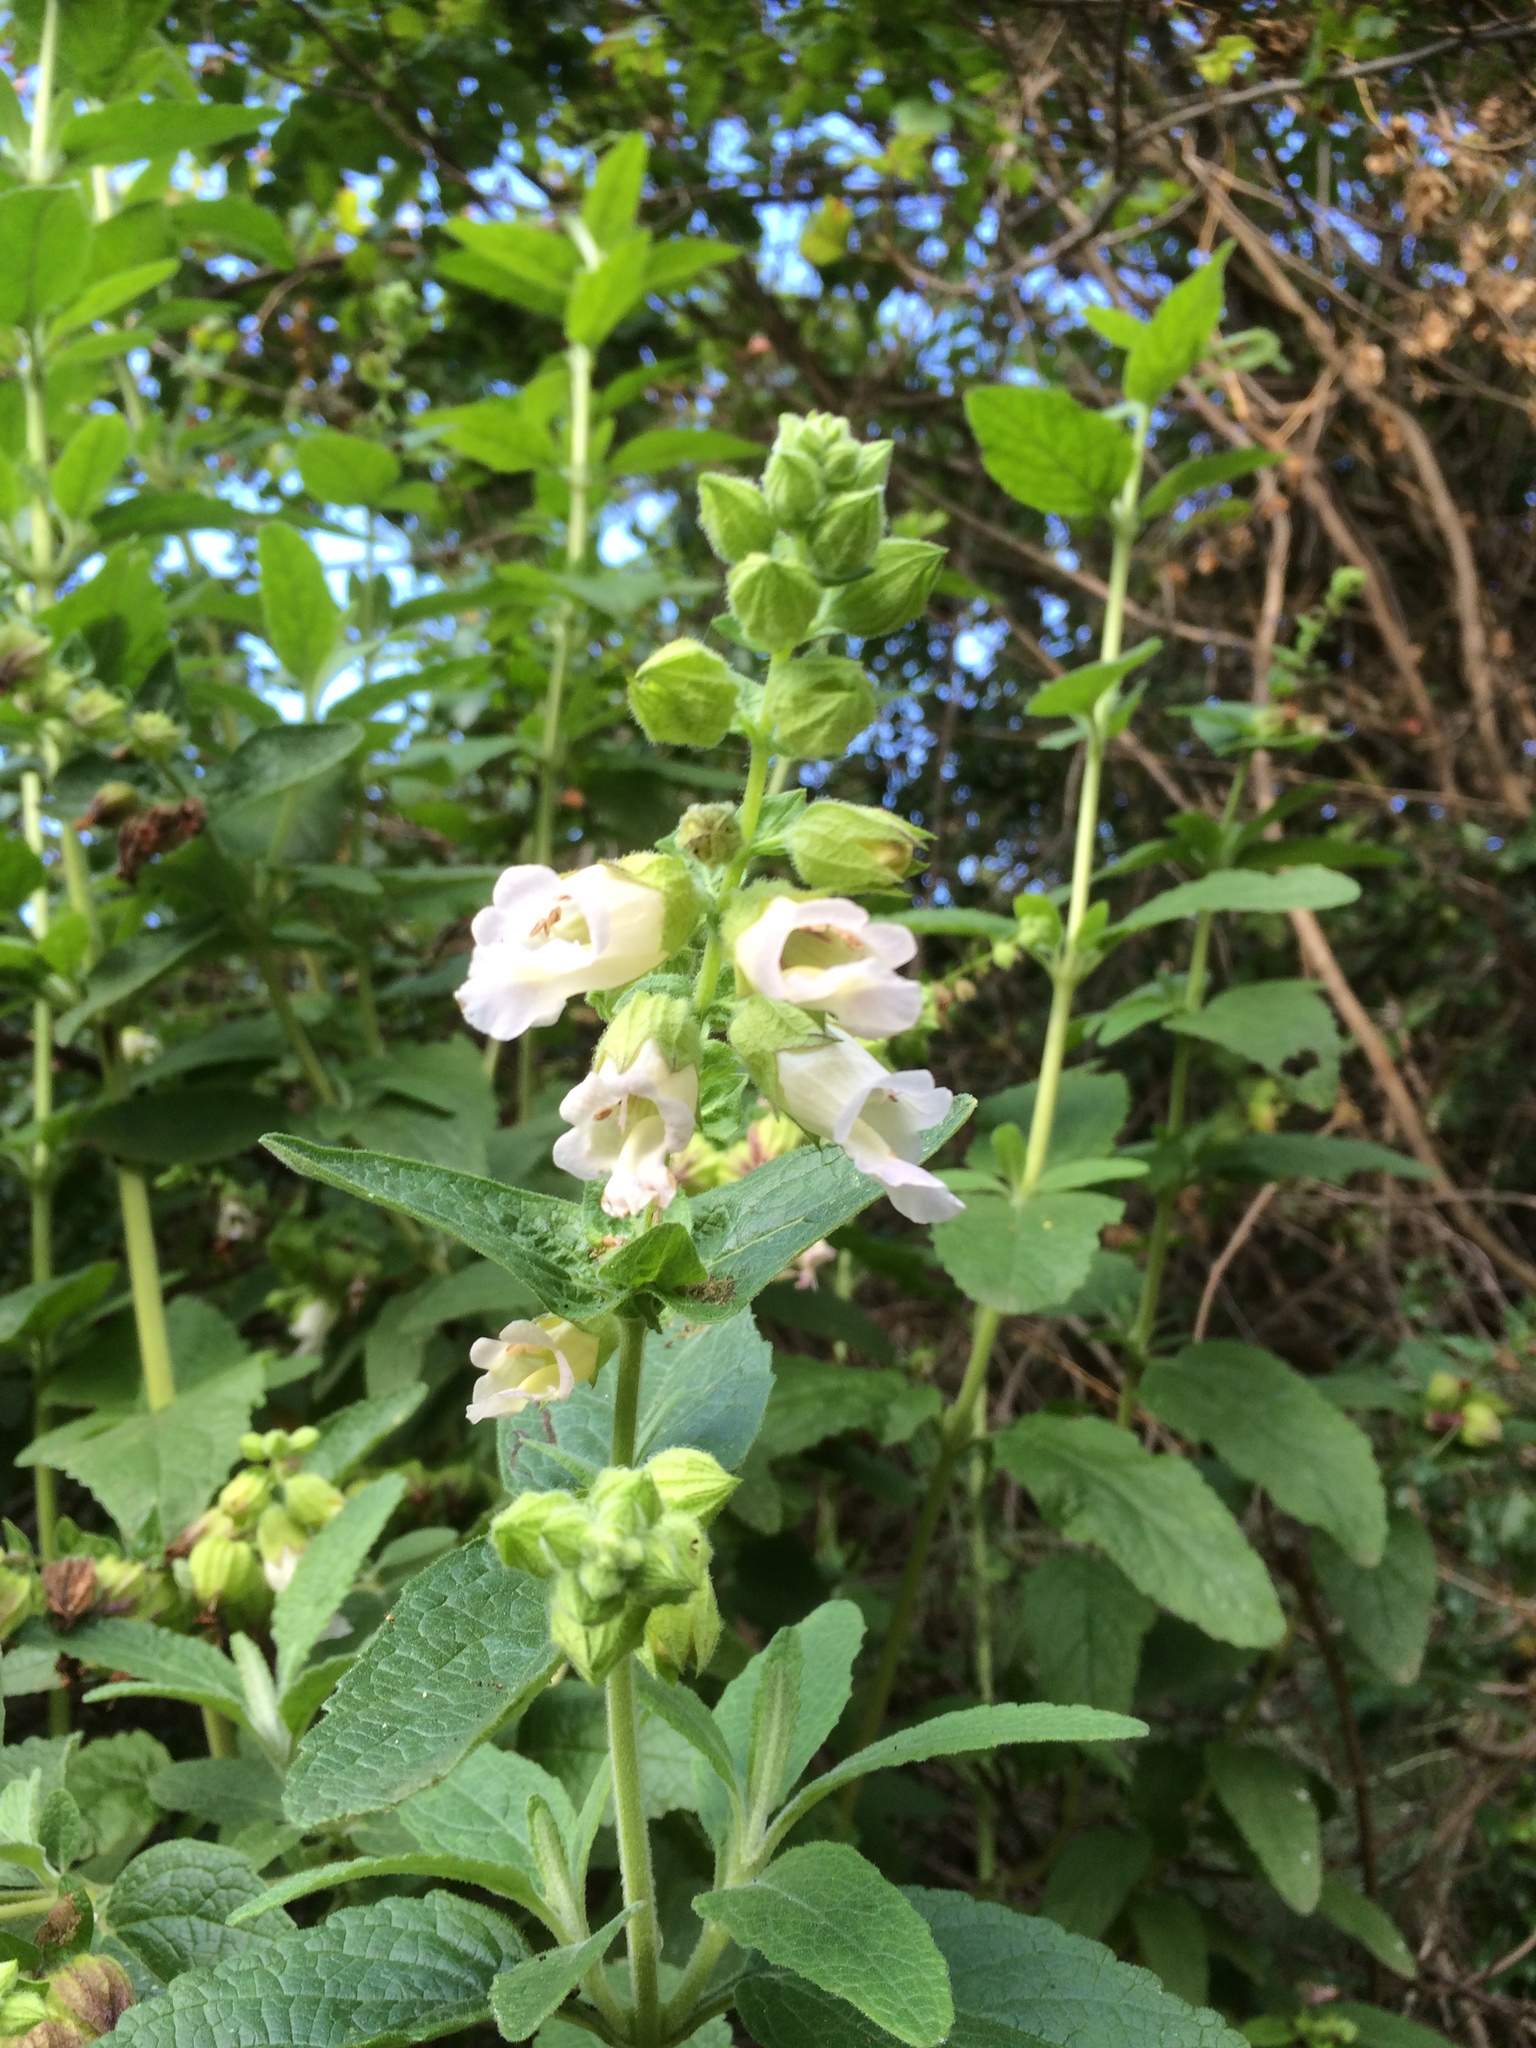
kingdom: Plantae
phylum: Tracheophyta
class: Magnoliopsida
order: Lamiales
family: Lamiaceae
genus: Lepechinia
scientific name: Lepechinia calycina
